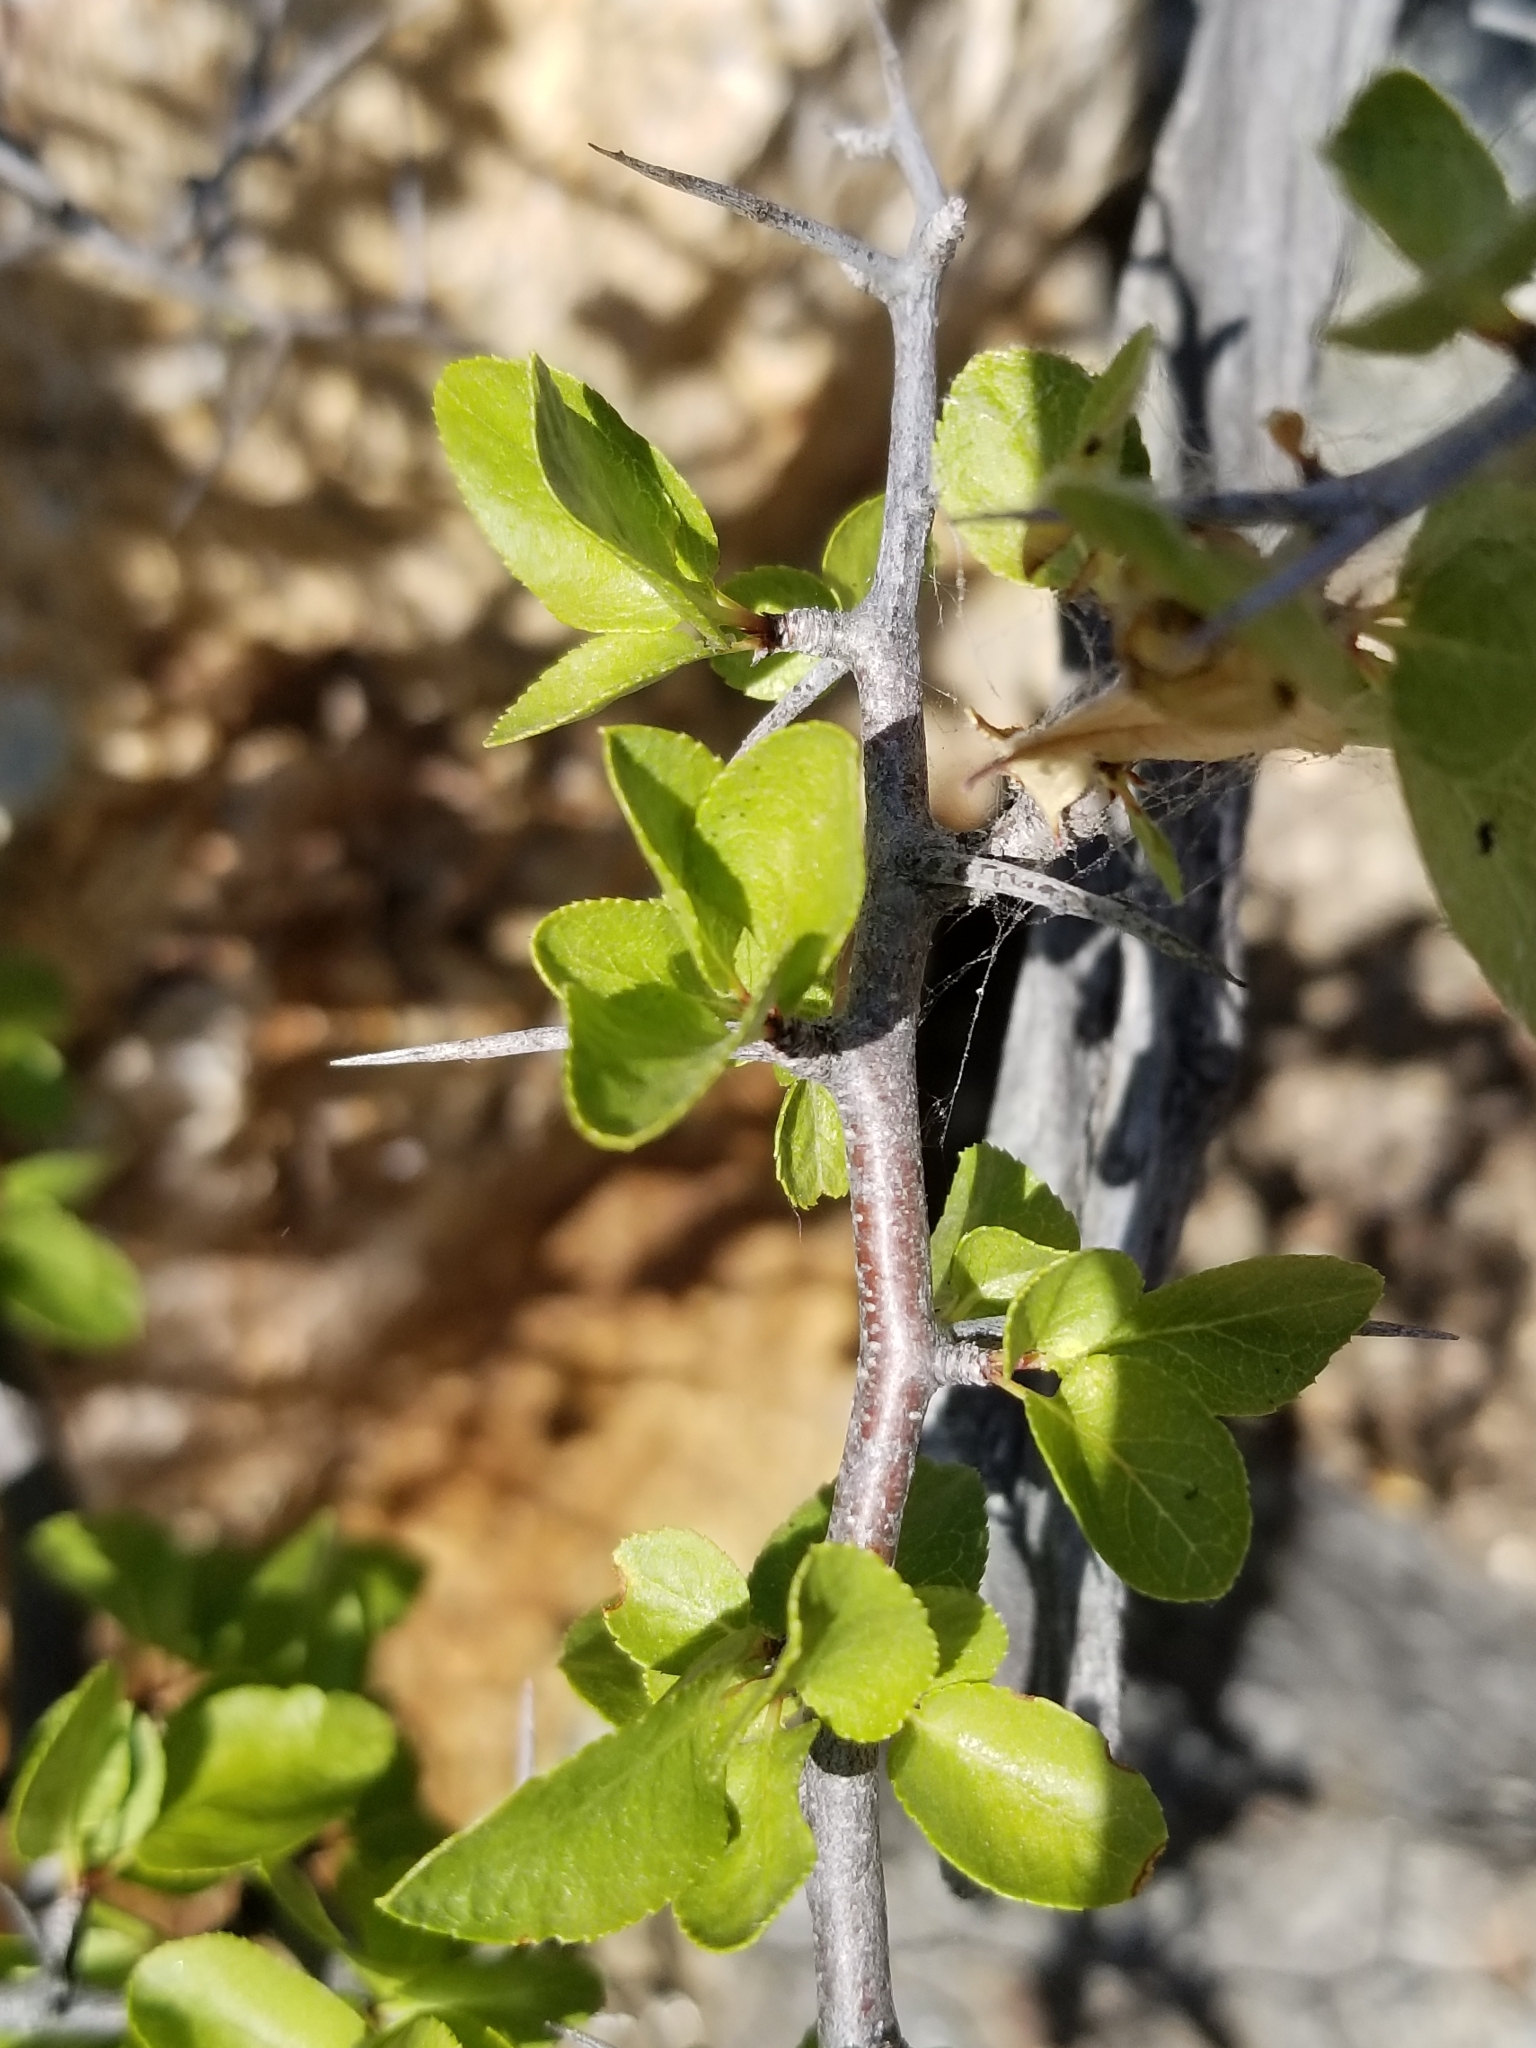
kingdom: Plantae
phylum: Tracheophyta
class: Magnoliopsida
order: Rosales
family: Rosaceae
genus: Prunus
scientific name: Prunus fremontii
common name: Desert apricot
